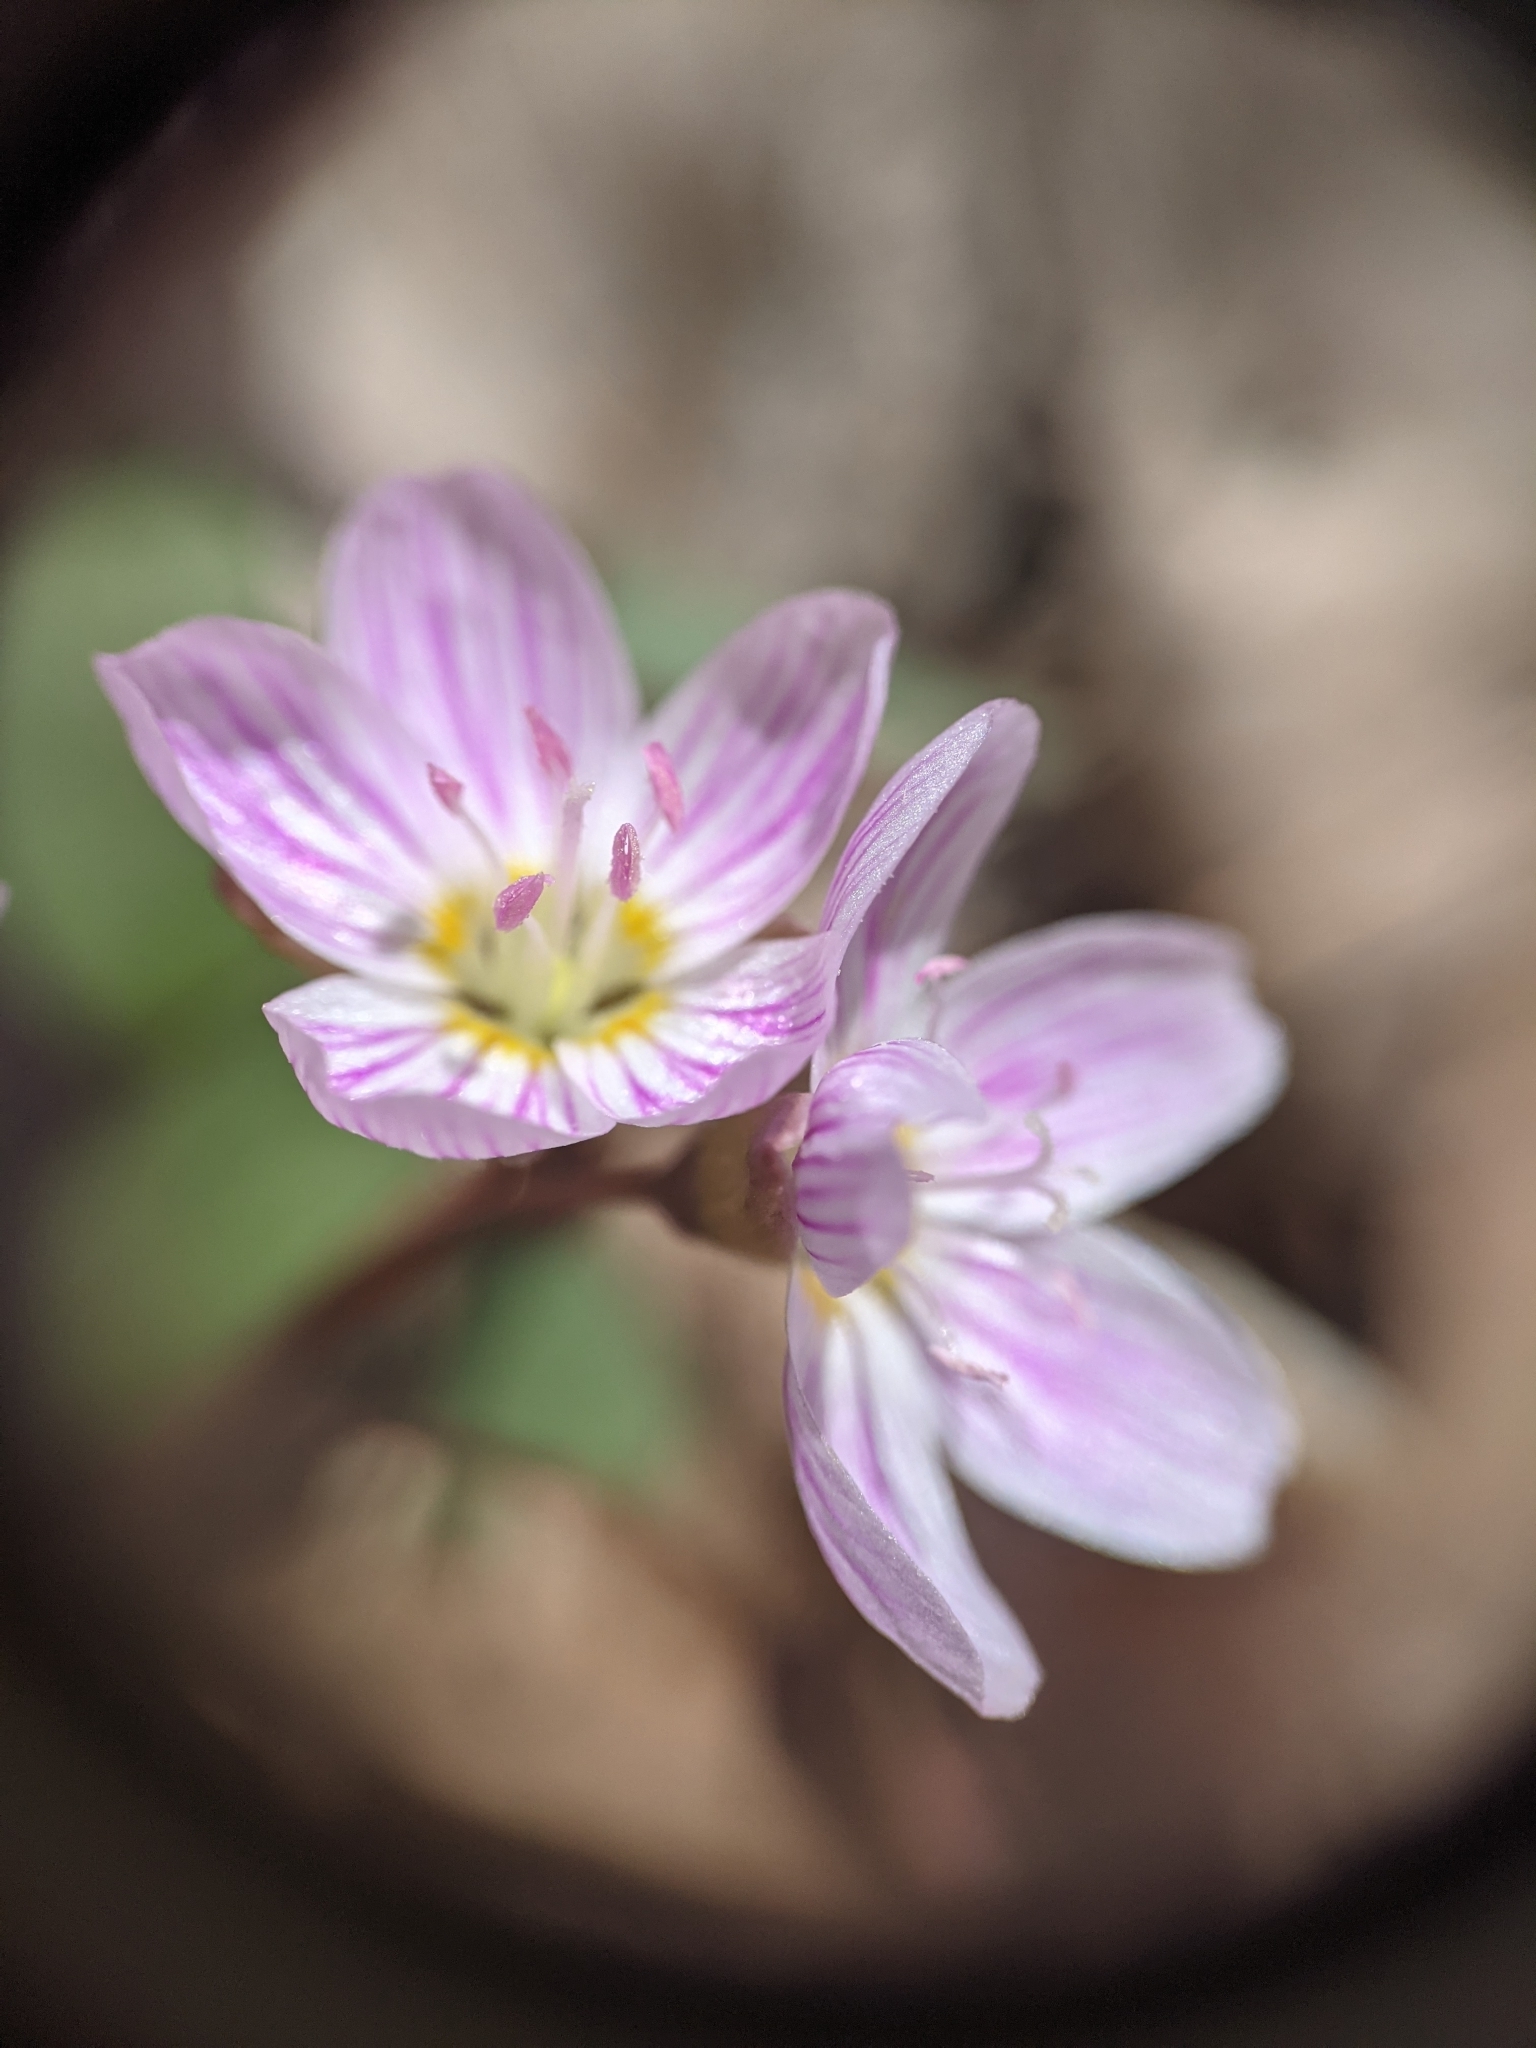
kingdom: Plantae
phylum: Tracheophyta
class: Magnoliopsida
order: Caryophyllales
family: Montiaceae
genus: Claytonia
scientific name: Claytonia caroliniana
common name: Carolina spring beauty
